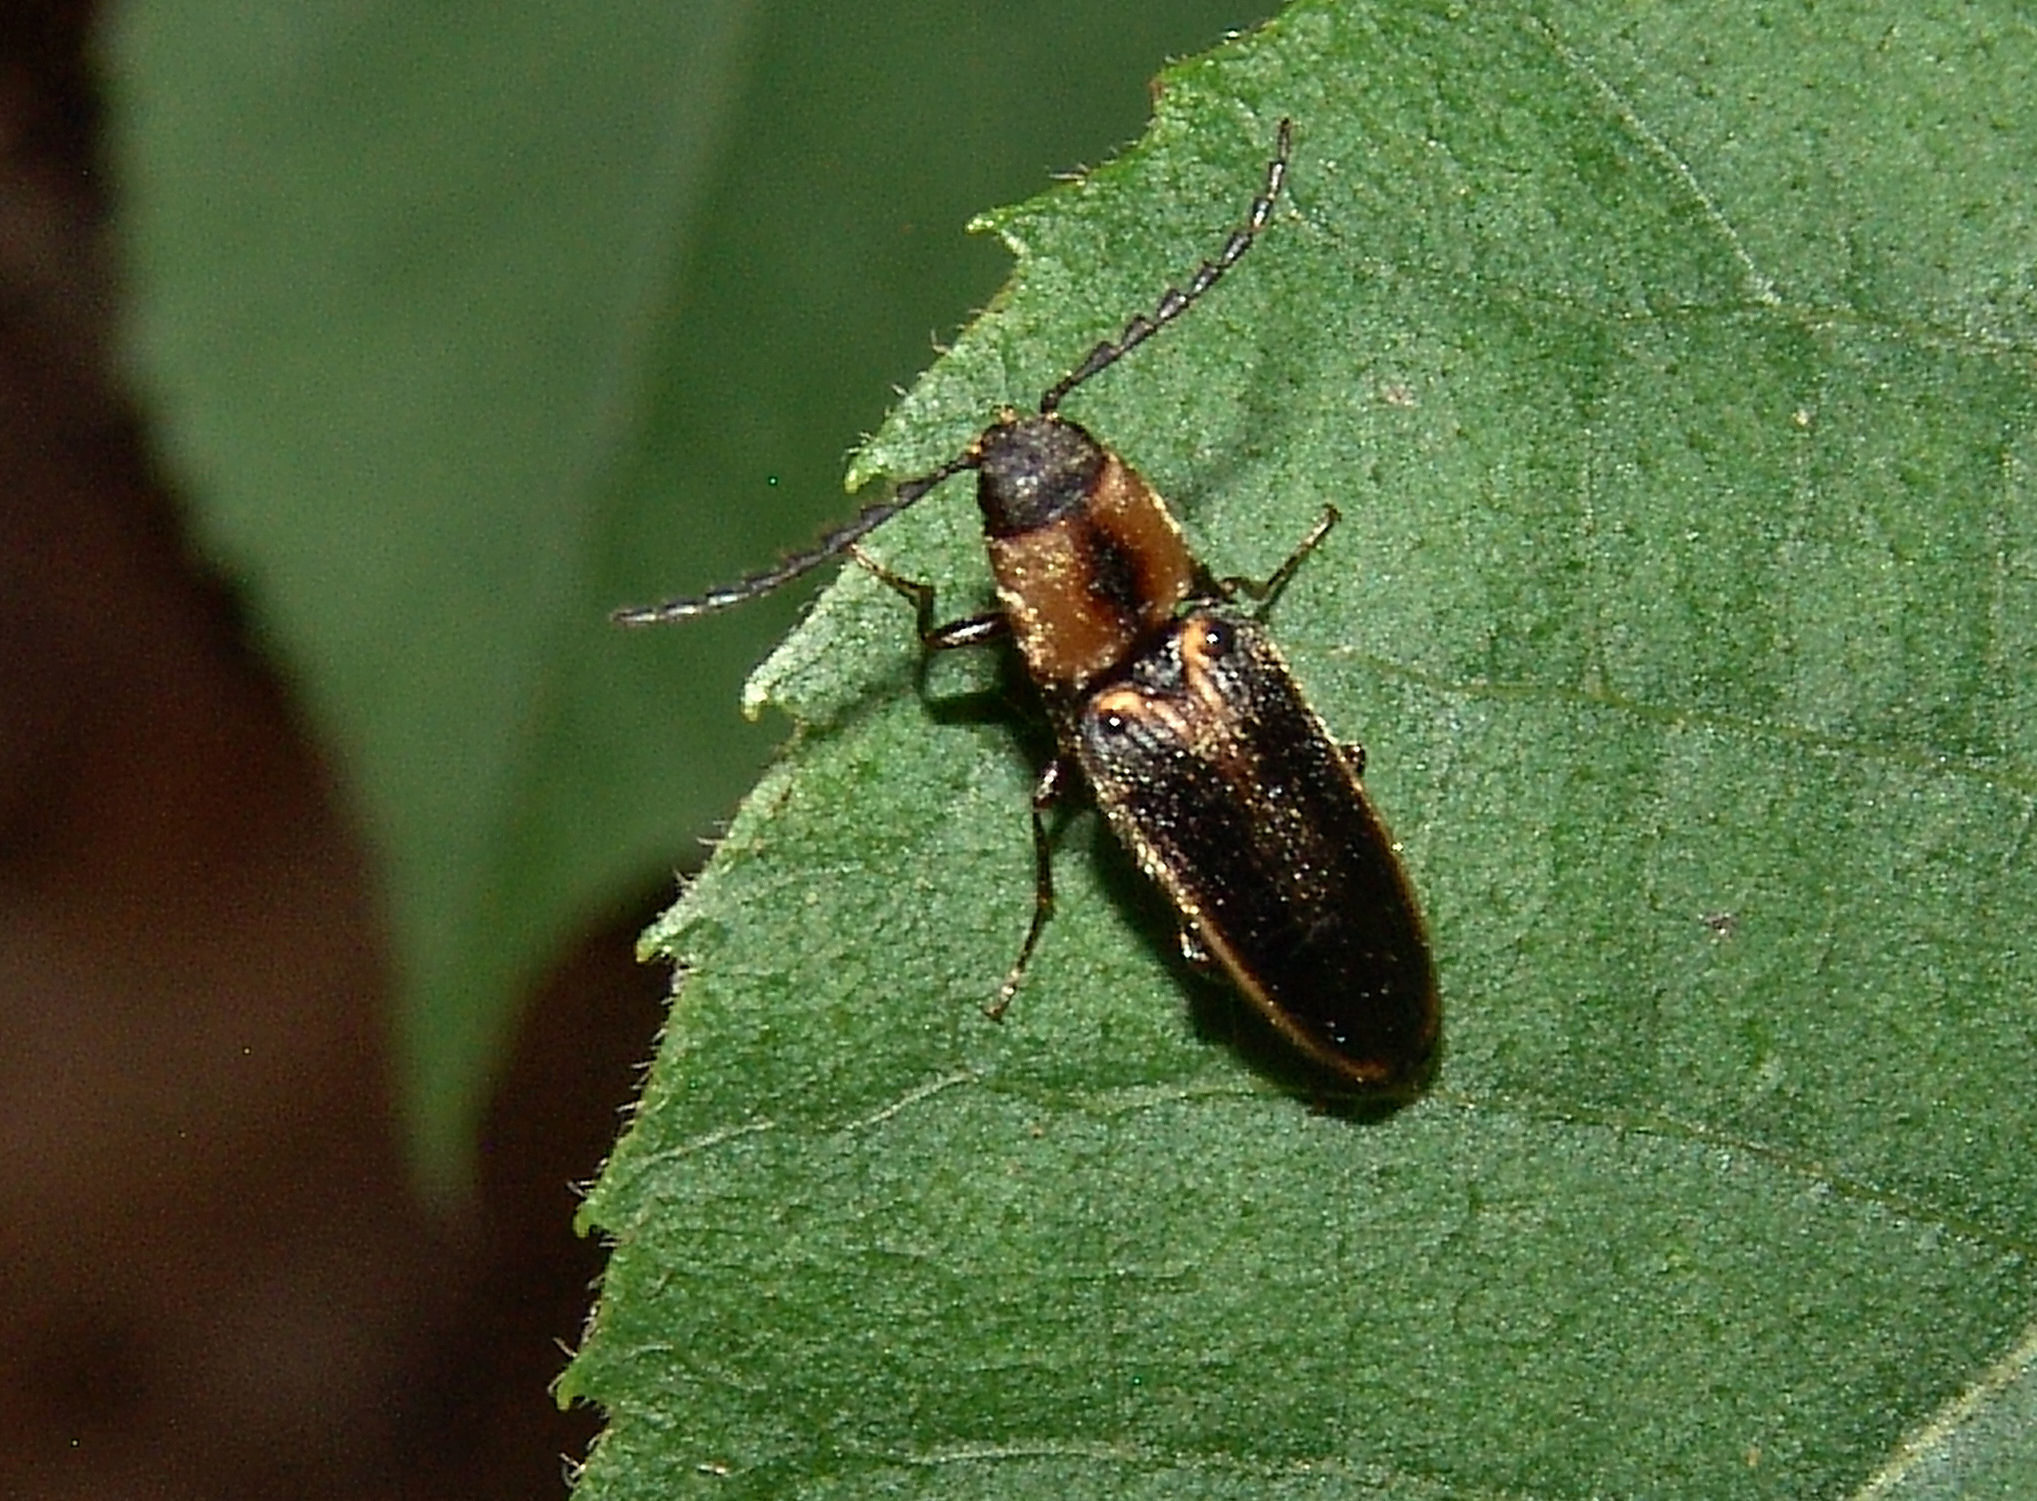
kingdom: Animalia
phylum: Arthropoda
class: Insecta
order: Coleoptera
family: Elateridae
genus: Megapenthes
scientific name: Megapenthes
